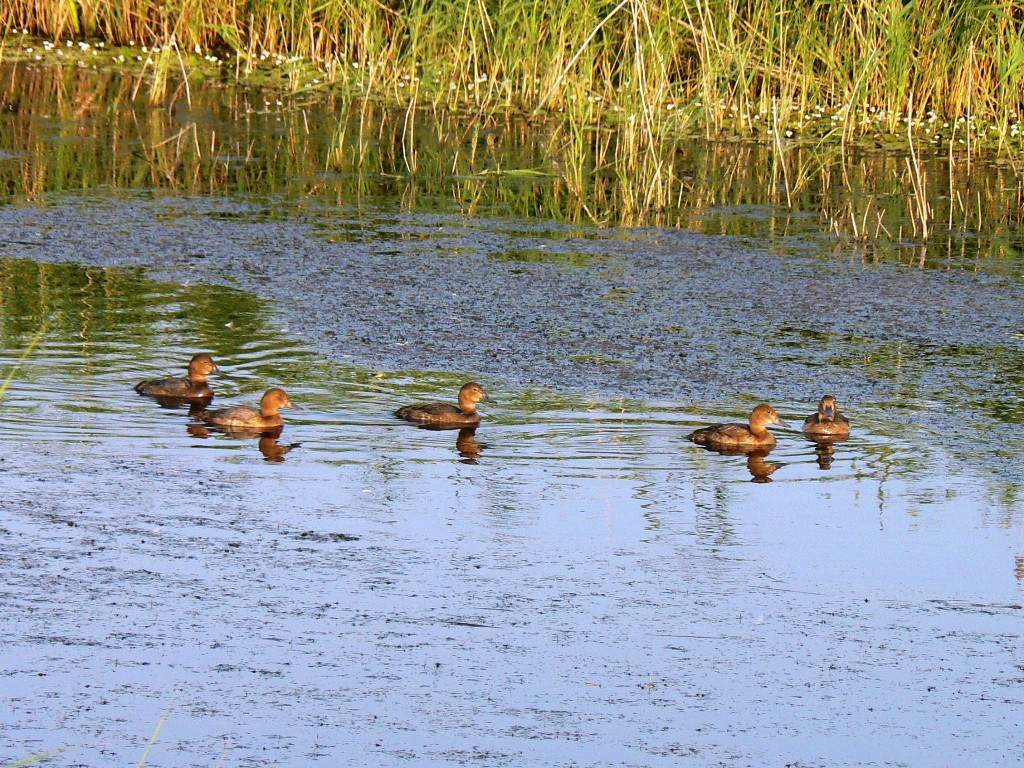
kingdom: Animalia
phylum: Chordata
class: Aves
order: Anseriformes
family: Anatidae
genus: Aythya
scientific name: Aythya ferina
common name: Common pochard
